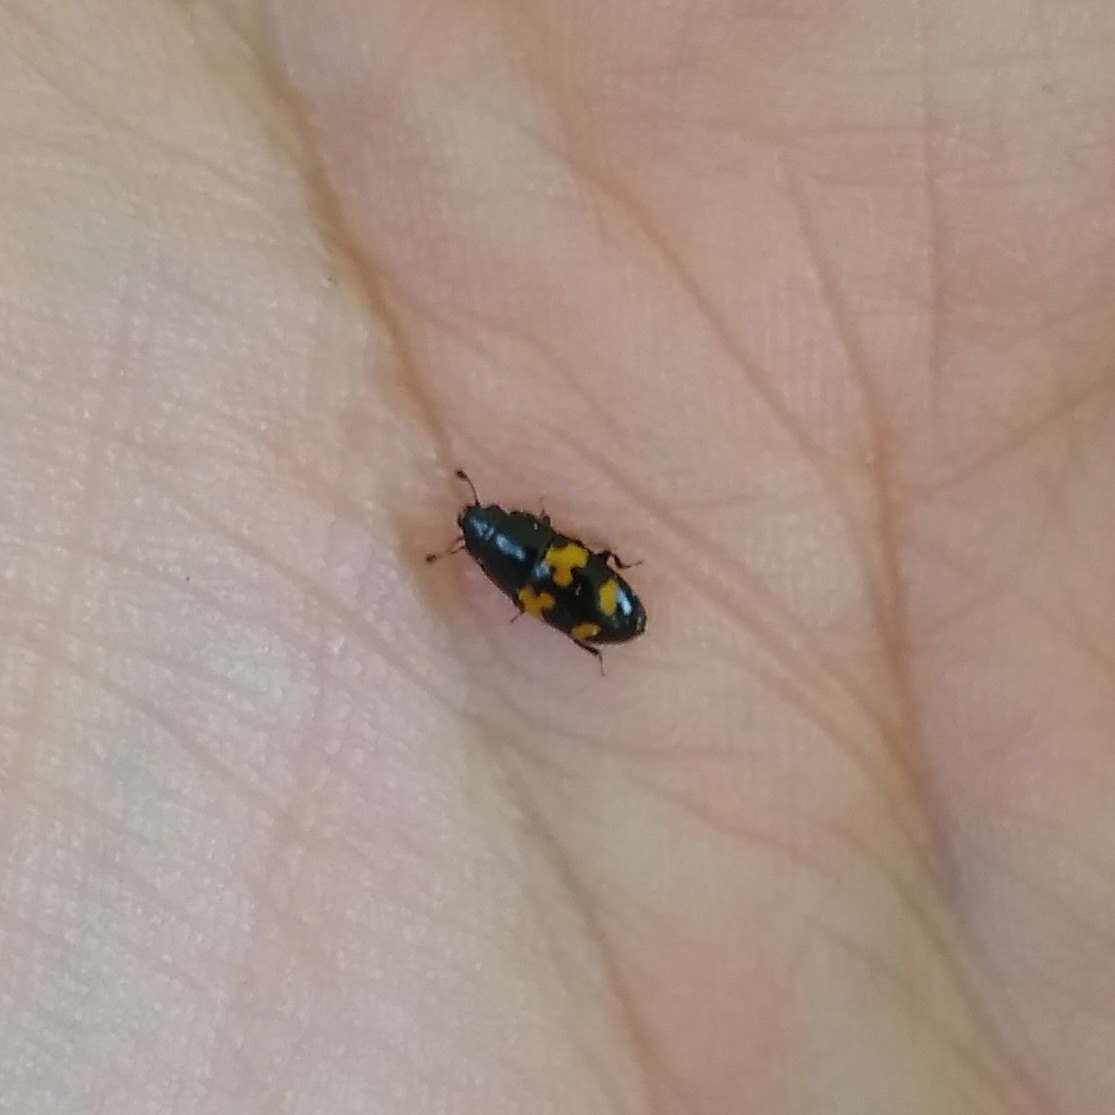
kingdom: Animalia
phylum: Arthropoda
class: Insecta
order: Coleoptera
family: Nitidulidae
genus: Glischrochilus
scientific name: Glischrochilus fasciatus
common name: Picnic beetle
